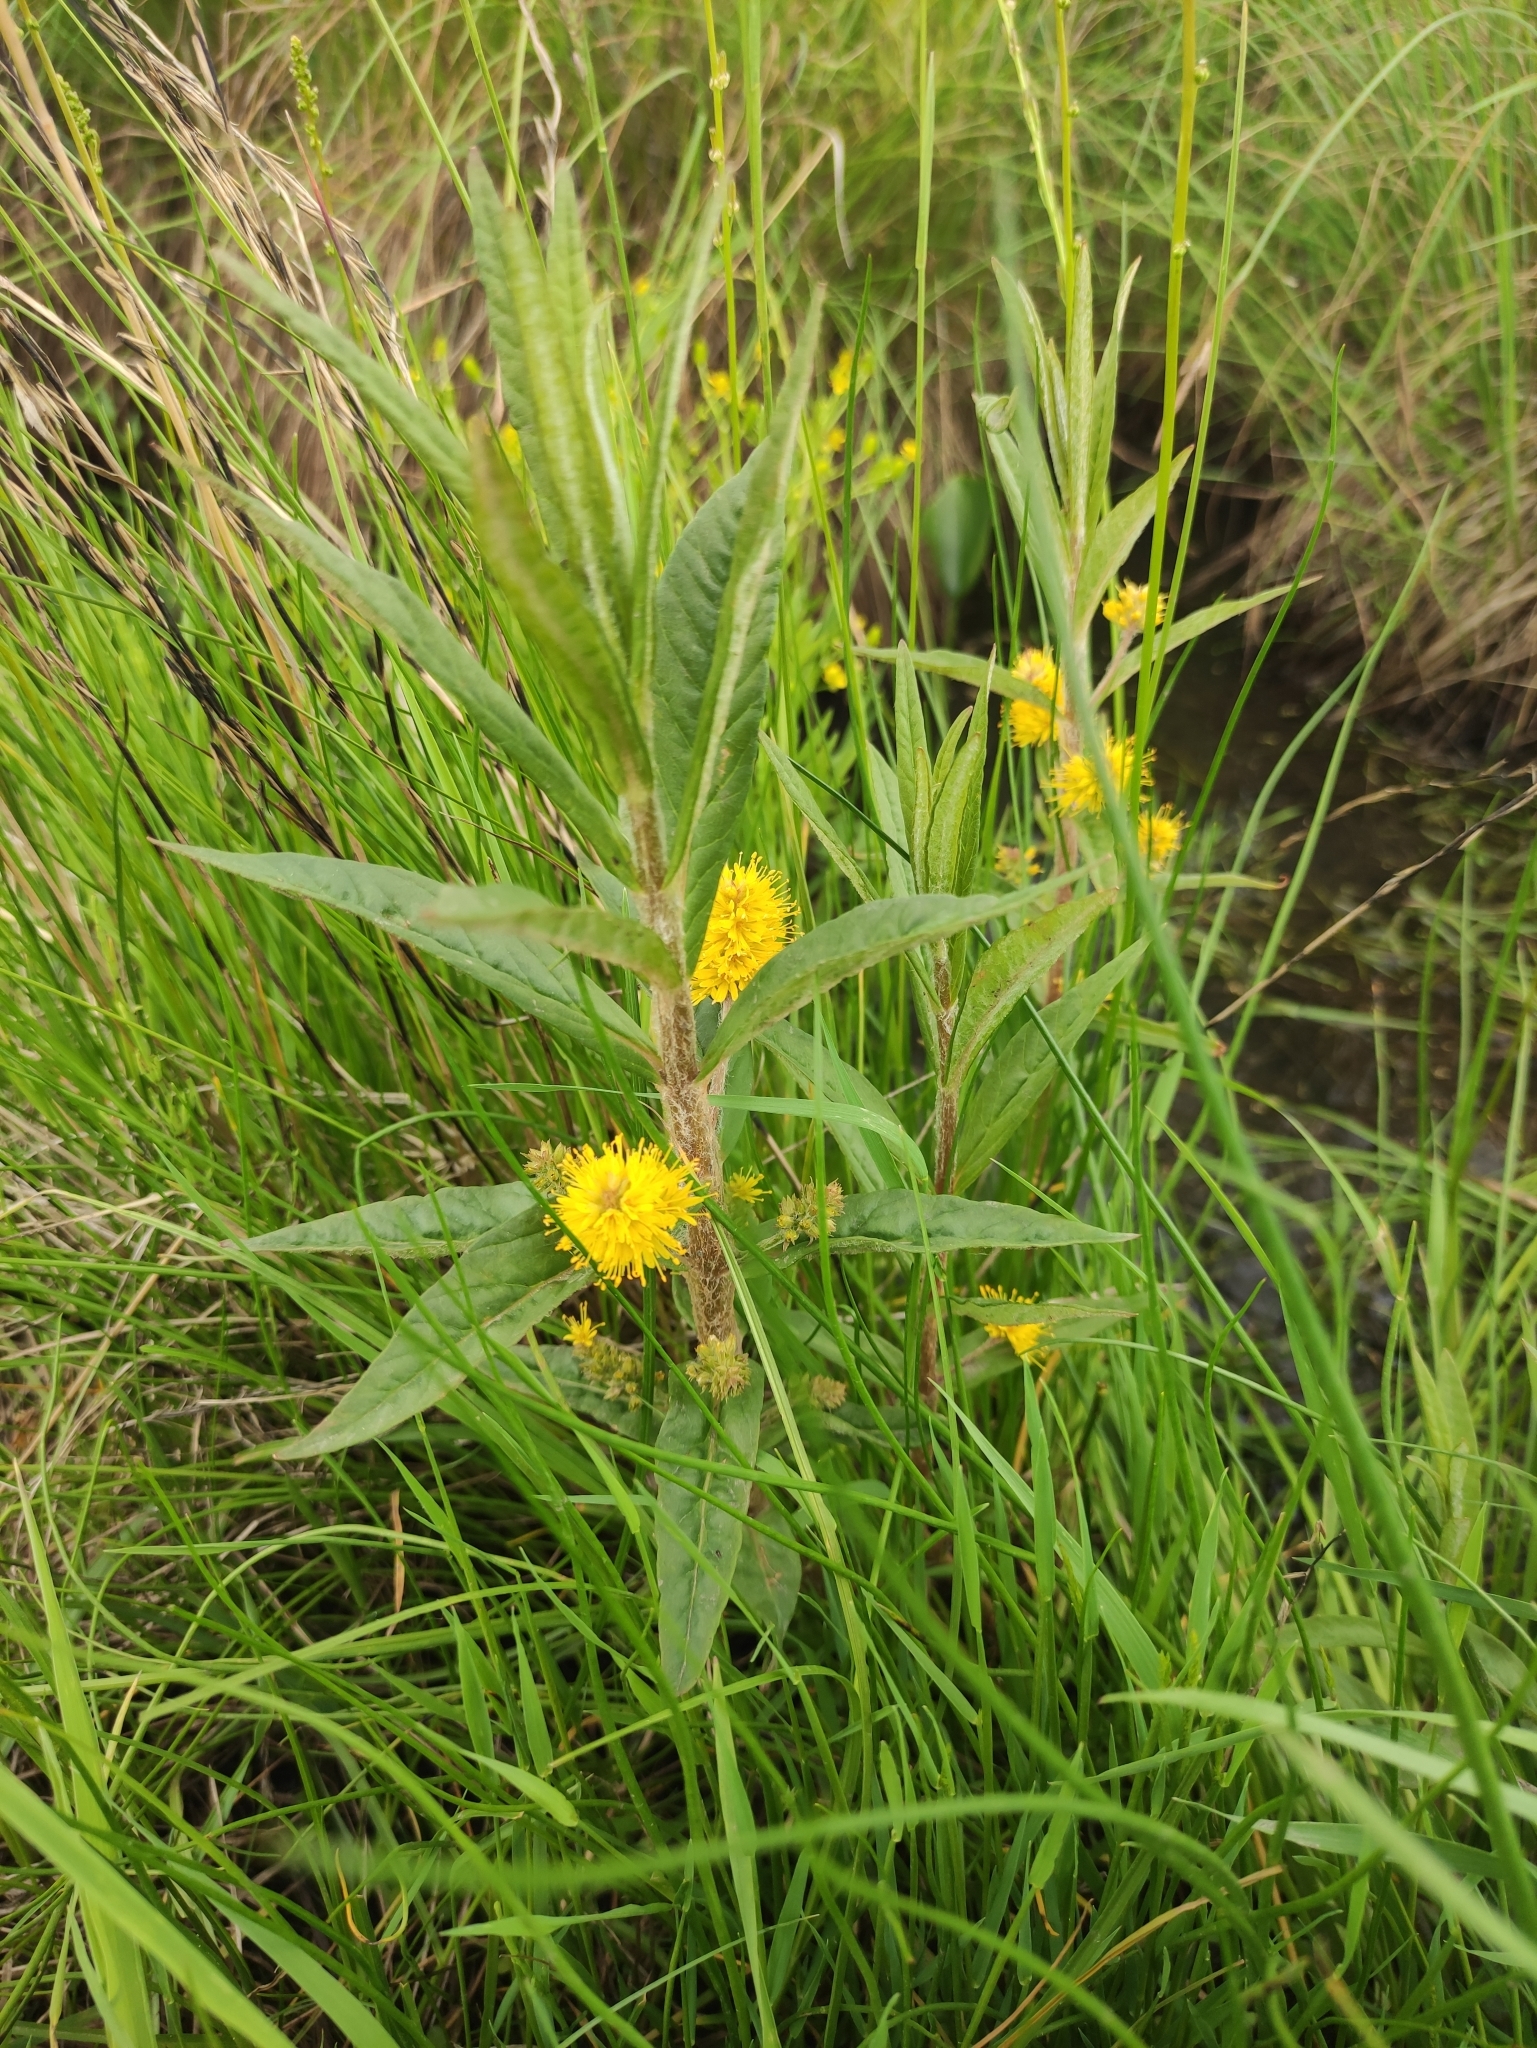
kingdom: Plantae
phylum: Tracheophyta
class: Magnoliopsida
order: Ericales
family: Primulaceae
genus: Lysimachia
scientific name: Lysimachia thyrsiflora
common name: Tufted loosestrife
